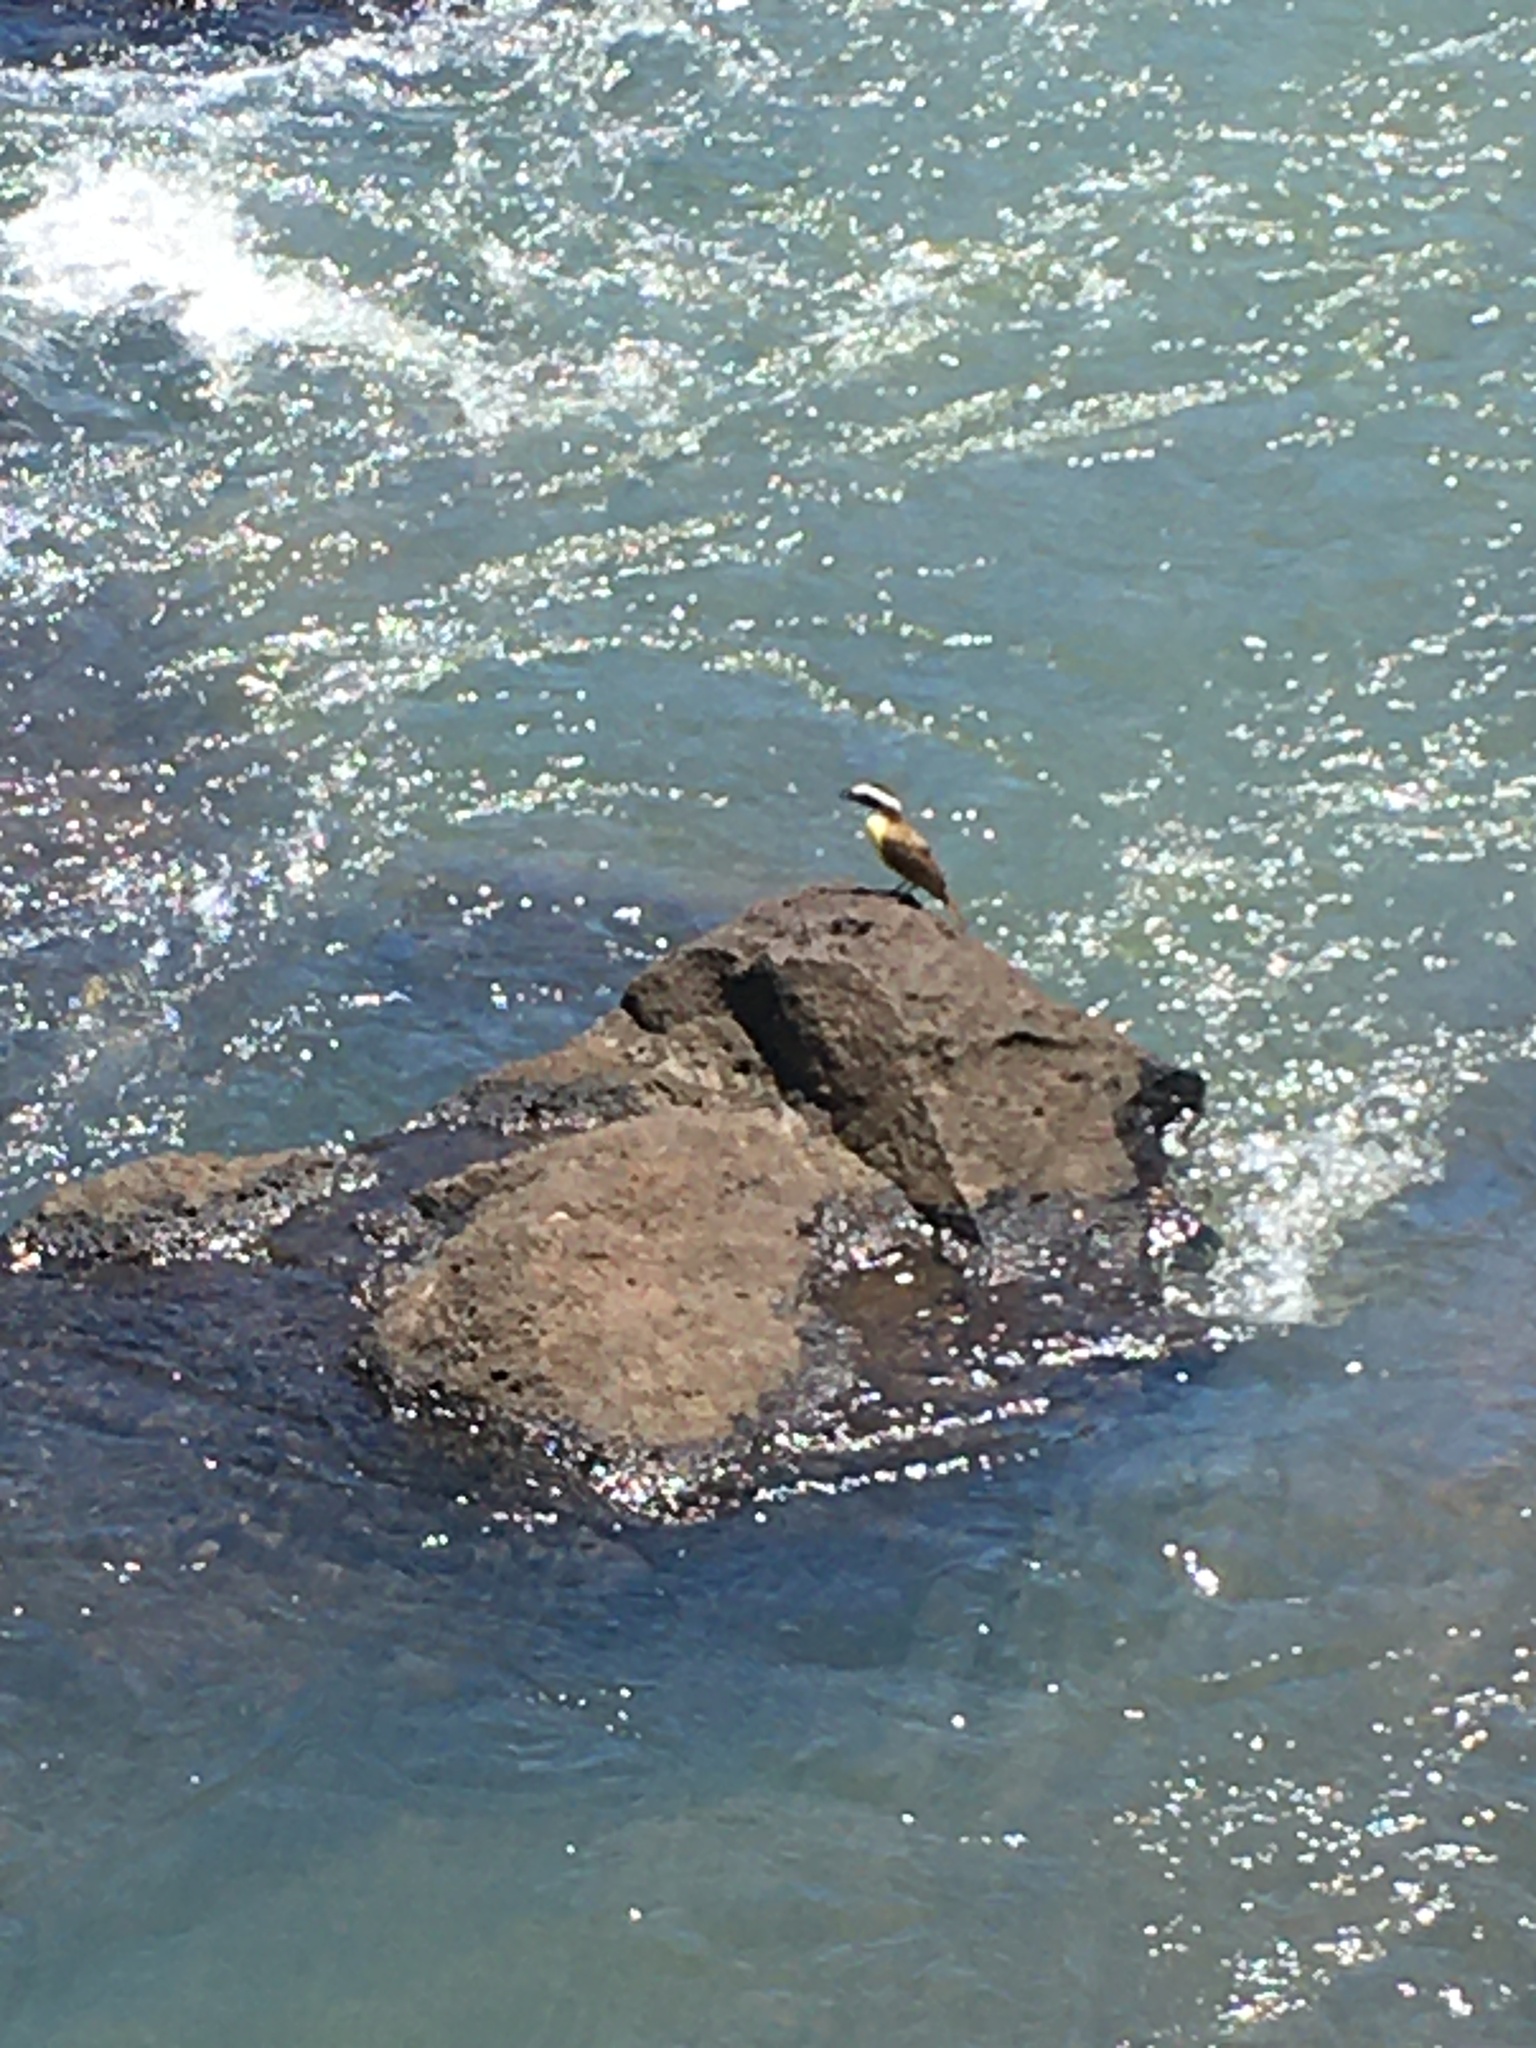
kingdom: Animalia
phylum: Chordata
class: Aves
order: Passeriformes
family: Tyrannidae
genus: Pitangus
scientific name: Pitangus sulphuratus
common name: Great kiskadee
